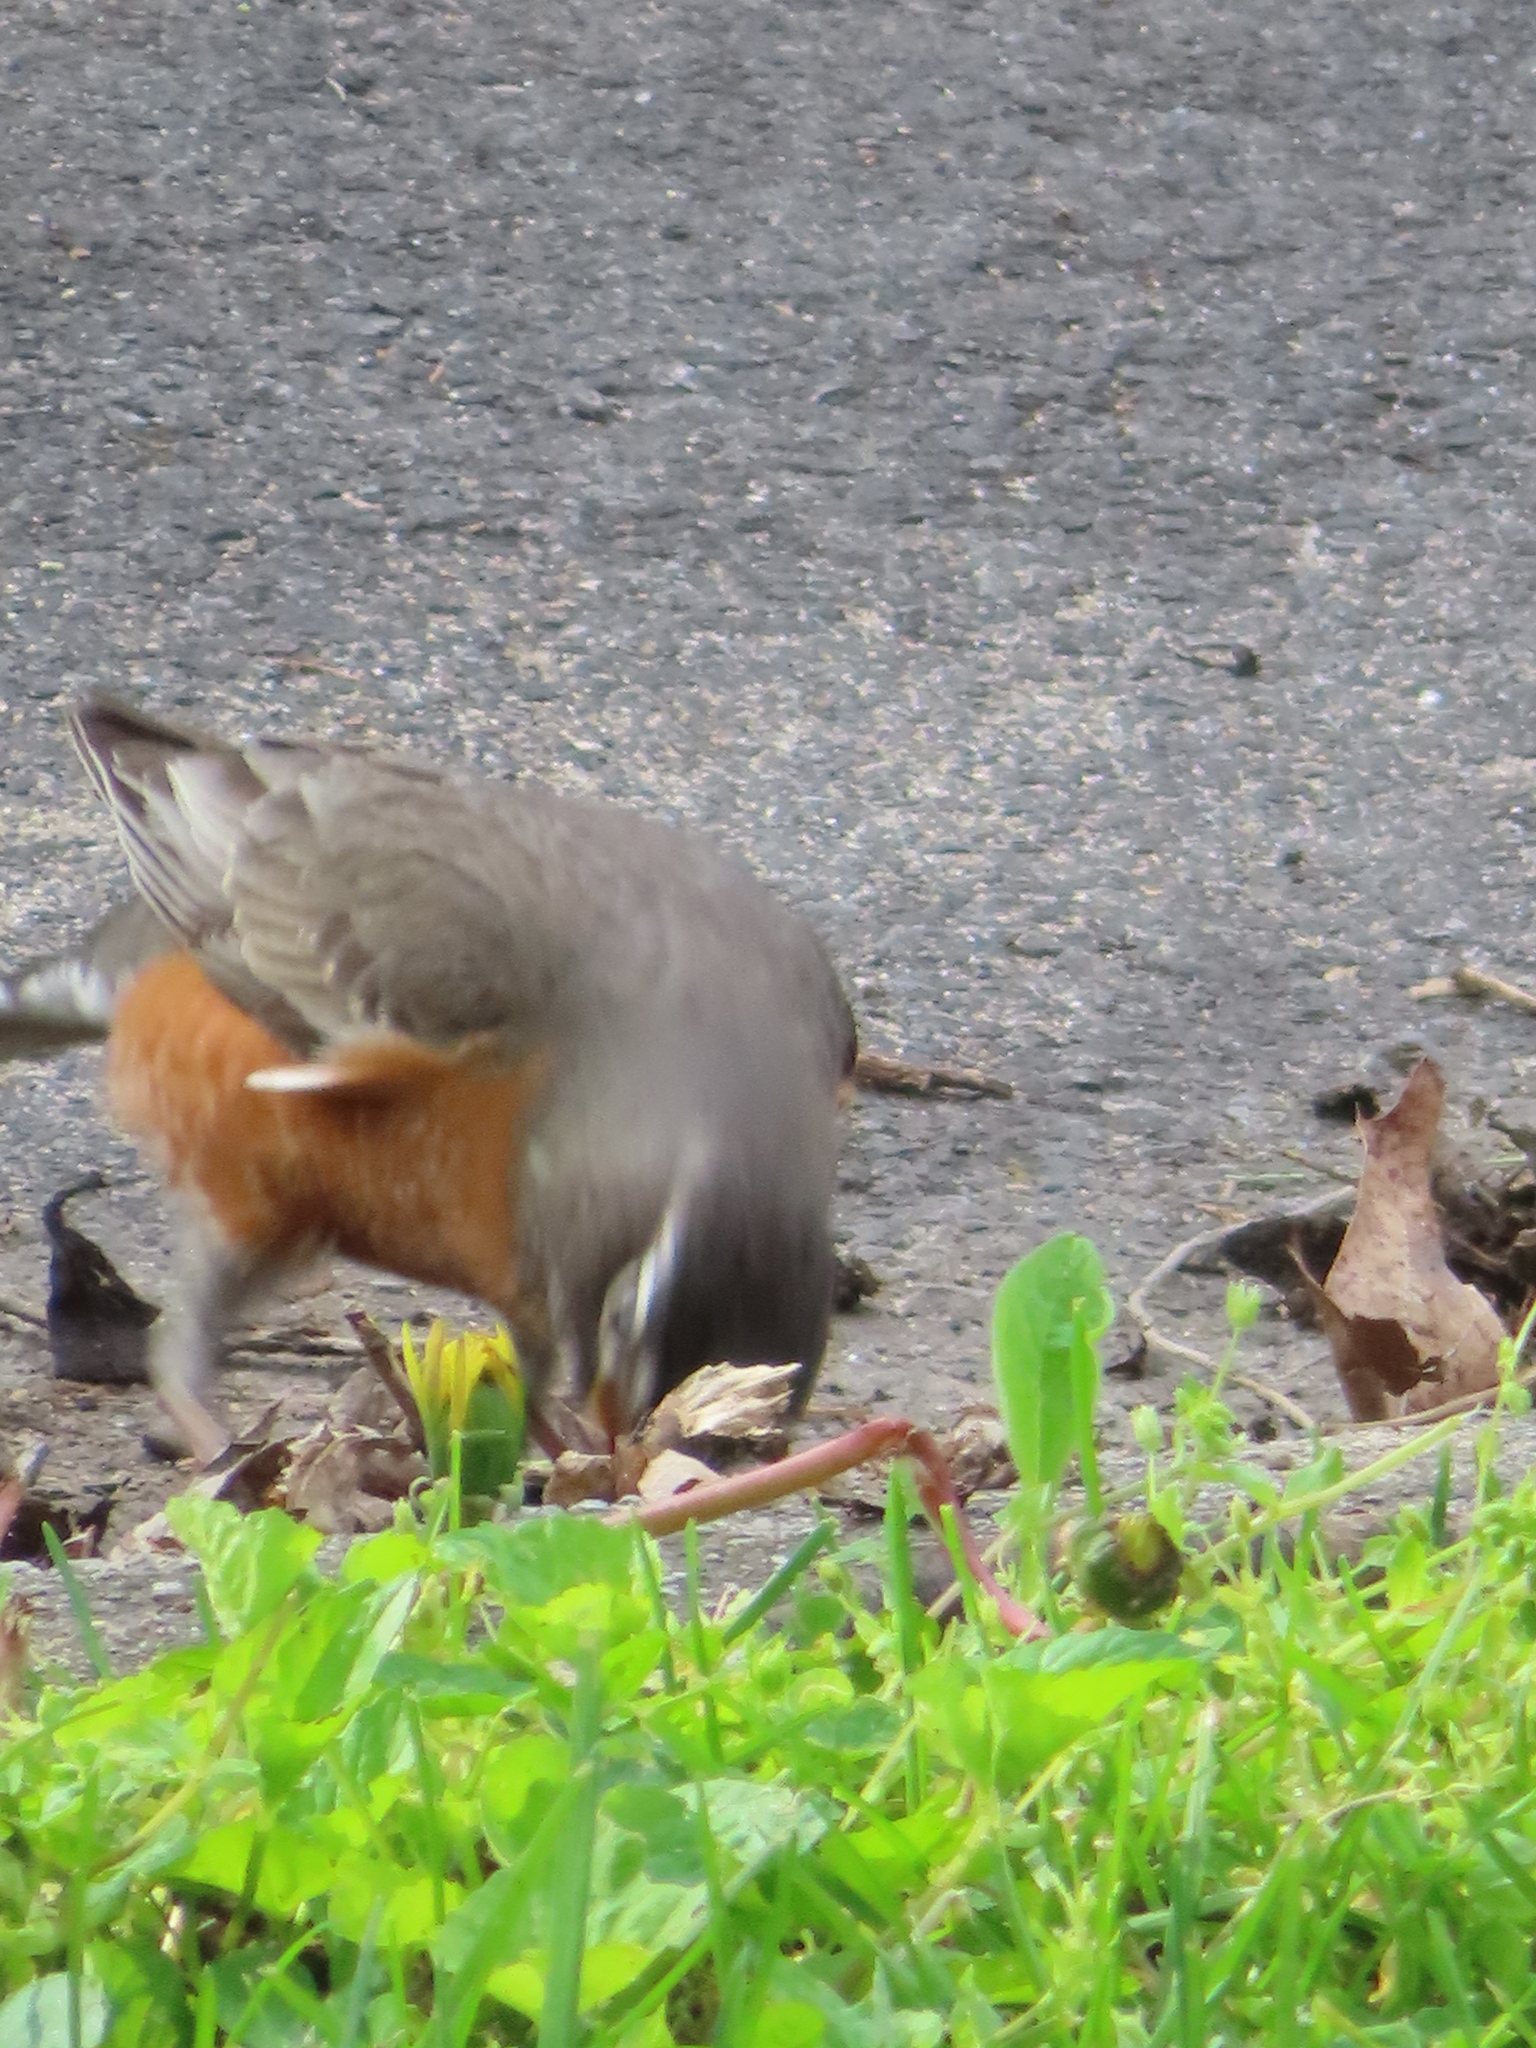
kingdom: Animalia
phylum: Chordata
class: Aves
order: Passeriformes
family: Turdidae
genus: Turdus
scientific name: Turdus migratorius
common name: American robin
